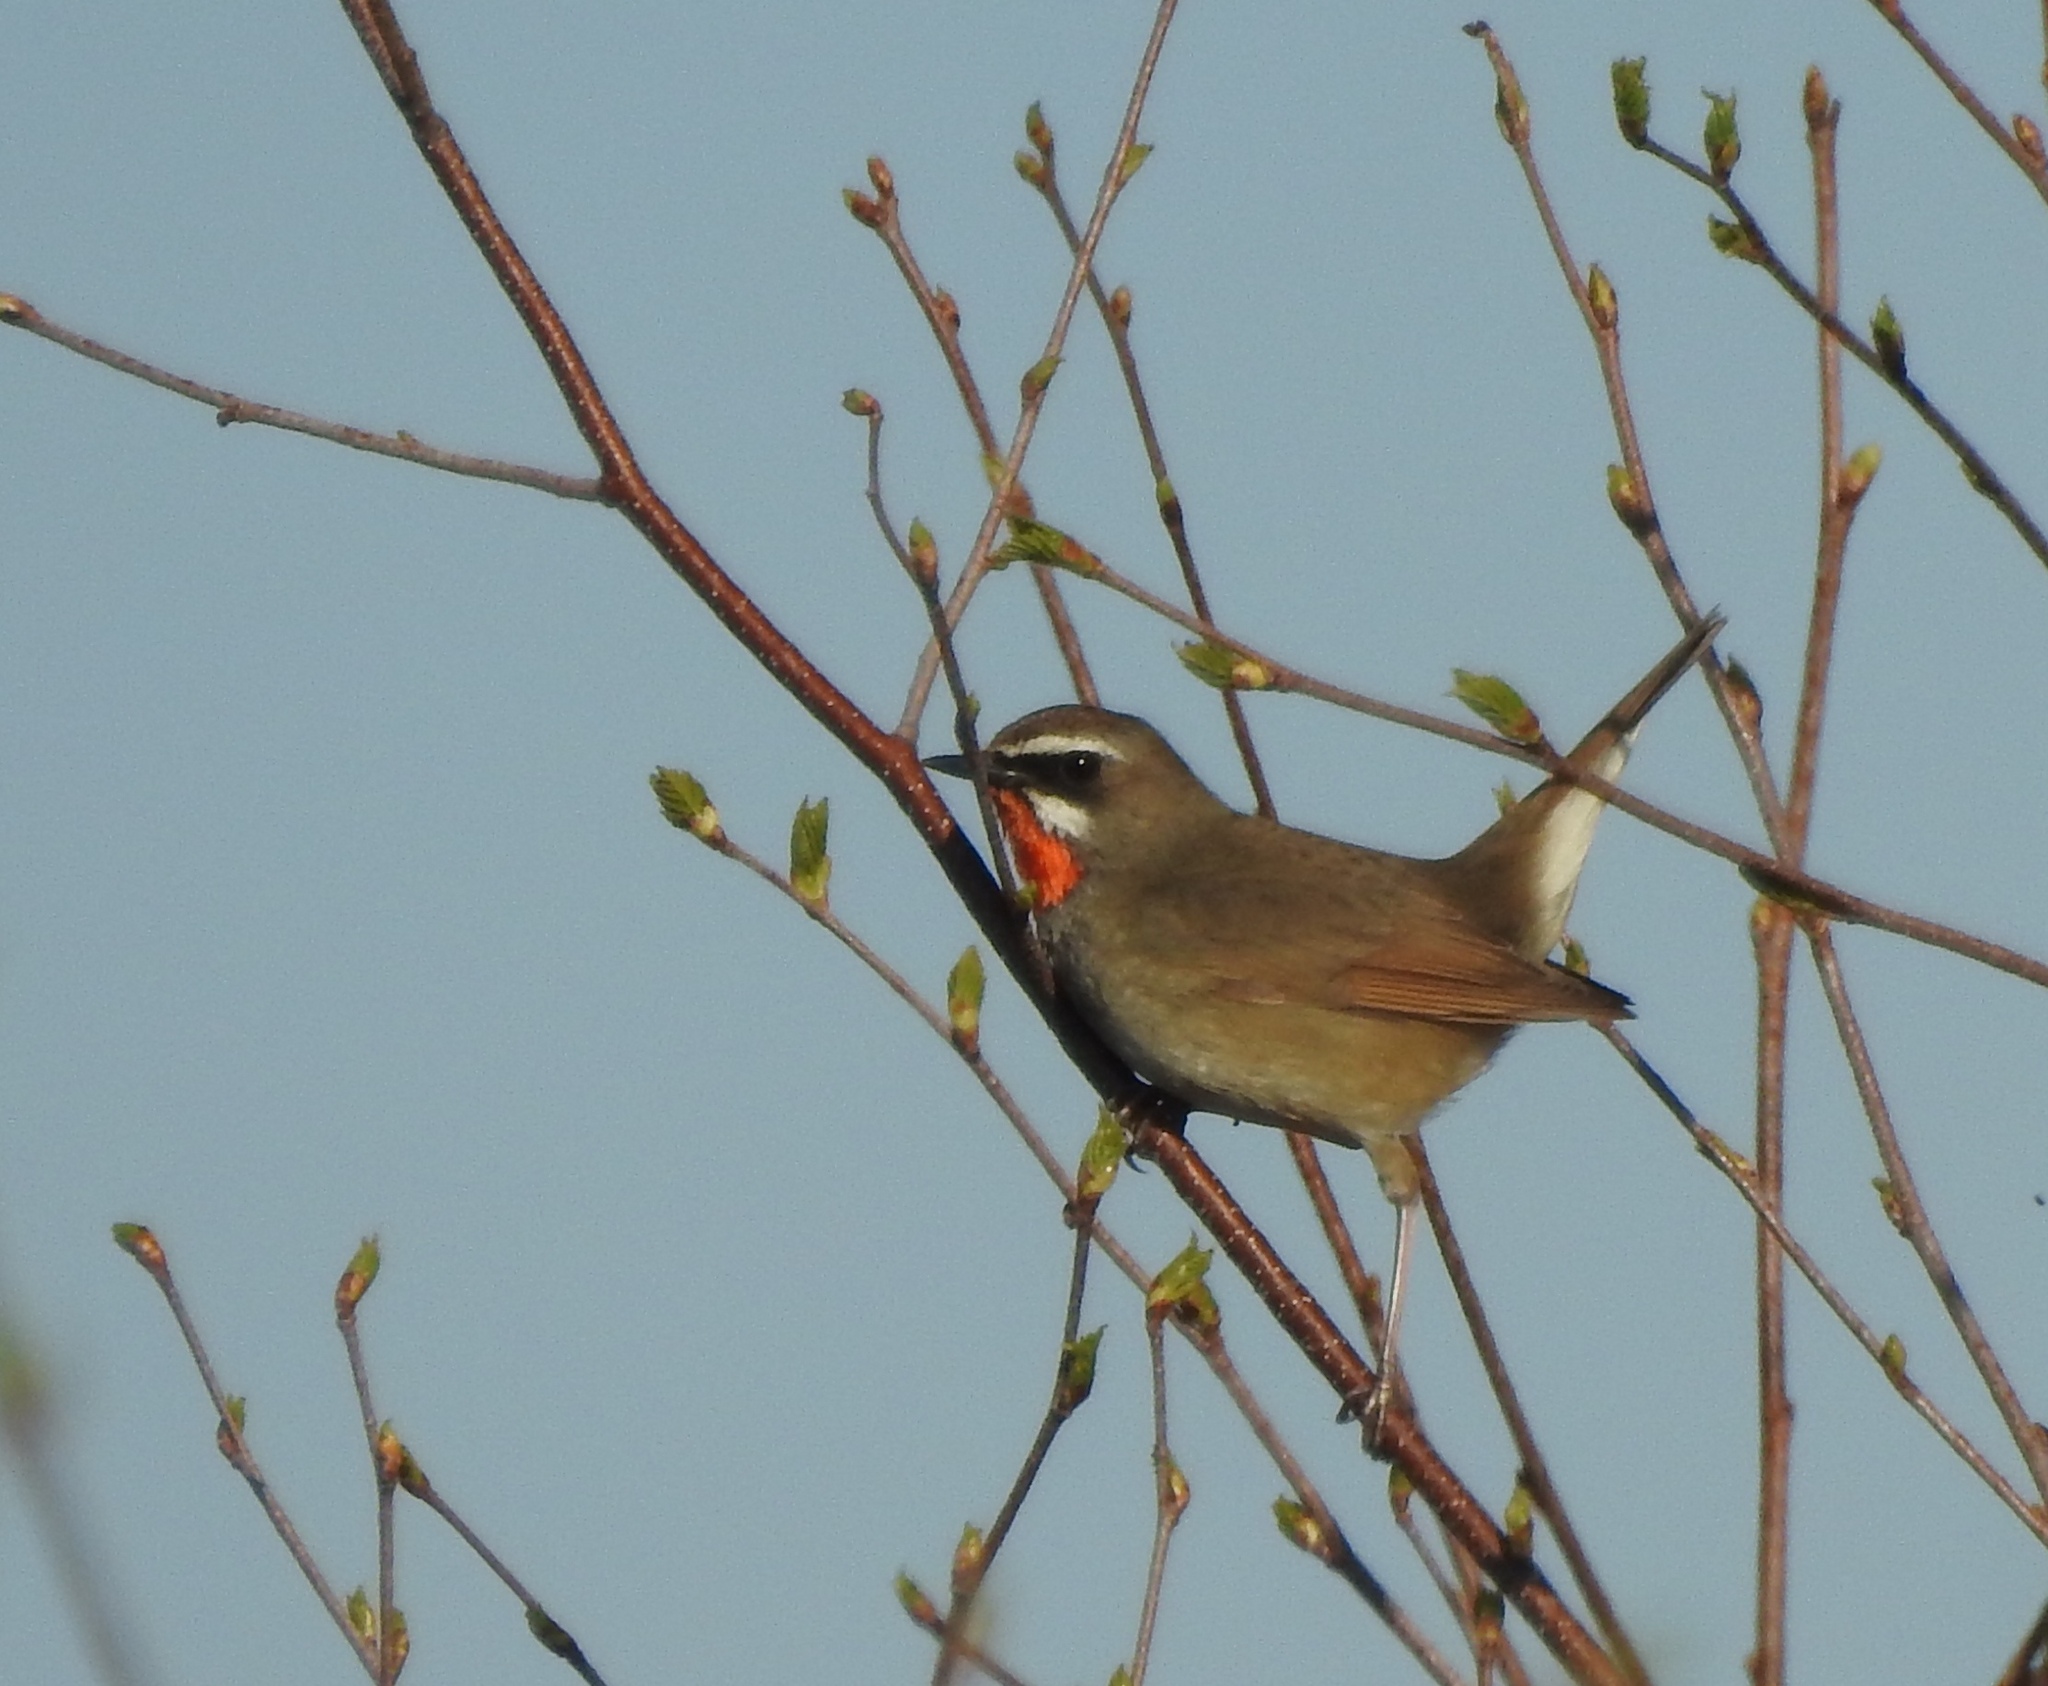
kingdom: Animalia
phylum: Chordata
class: Aves
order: Passeriformes
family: Muscicapidae
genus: Luscinia
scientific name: Luscinia calliope
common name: Siberian rubythroat
